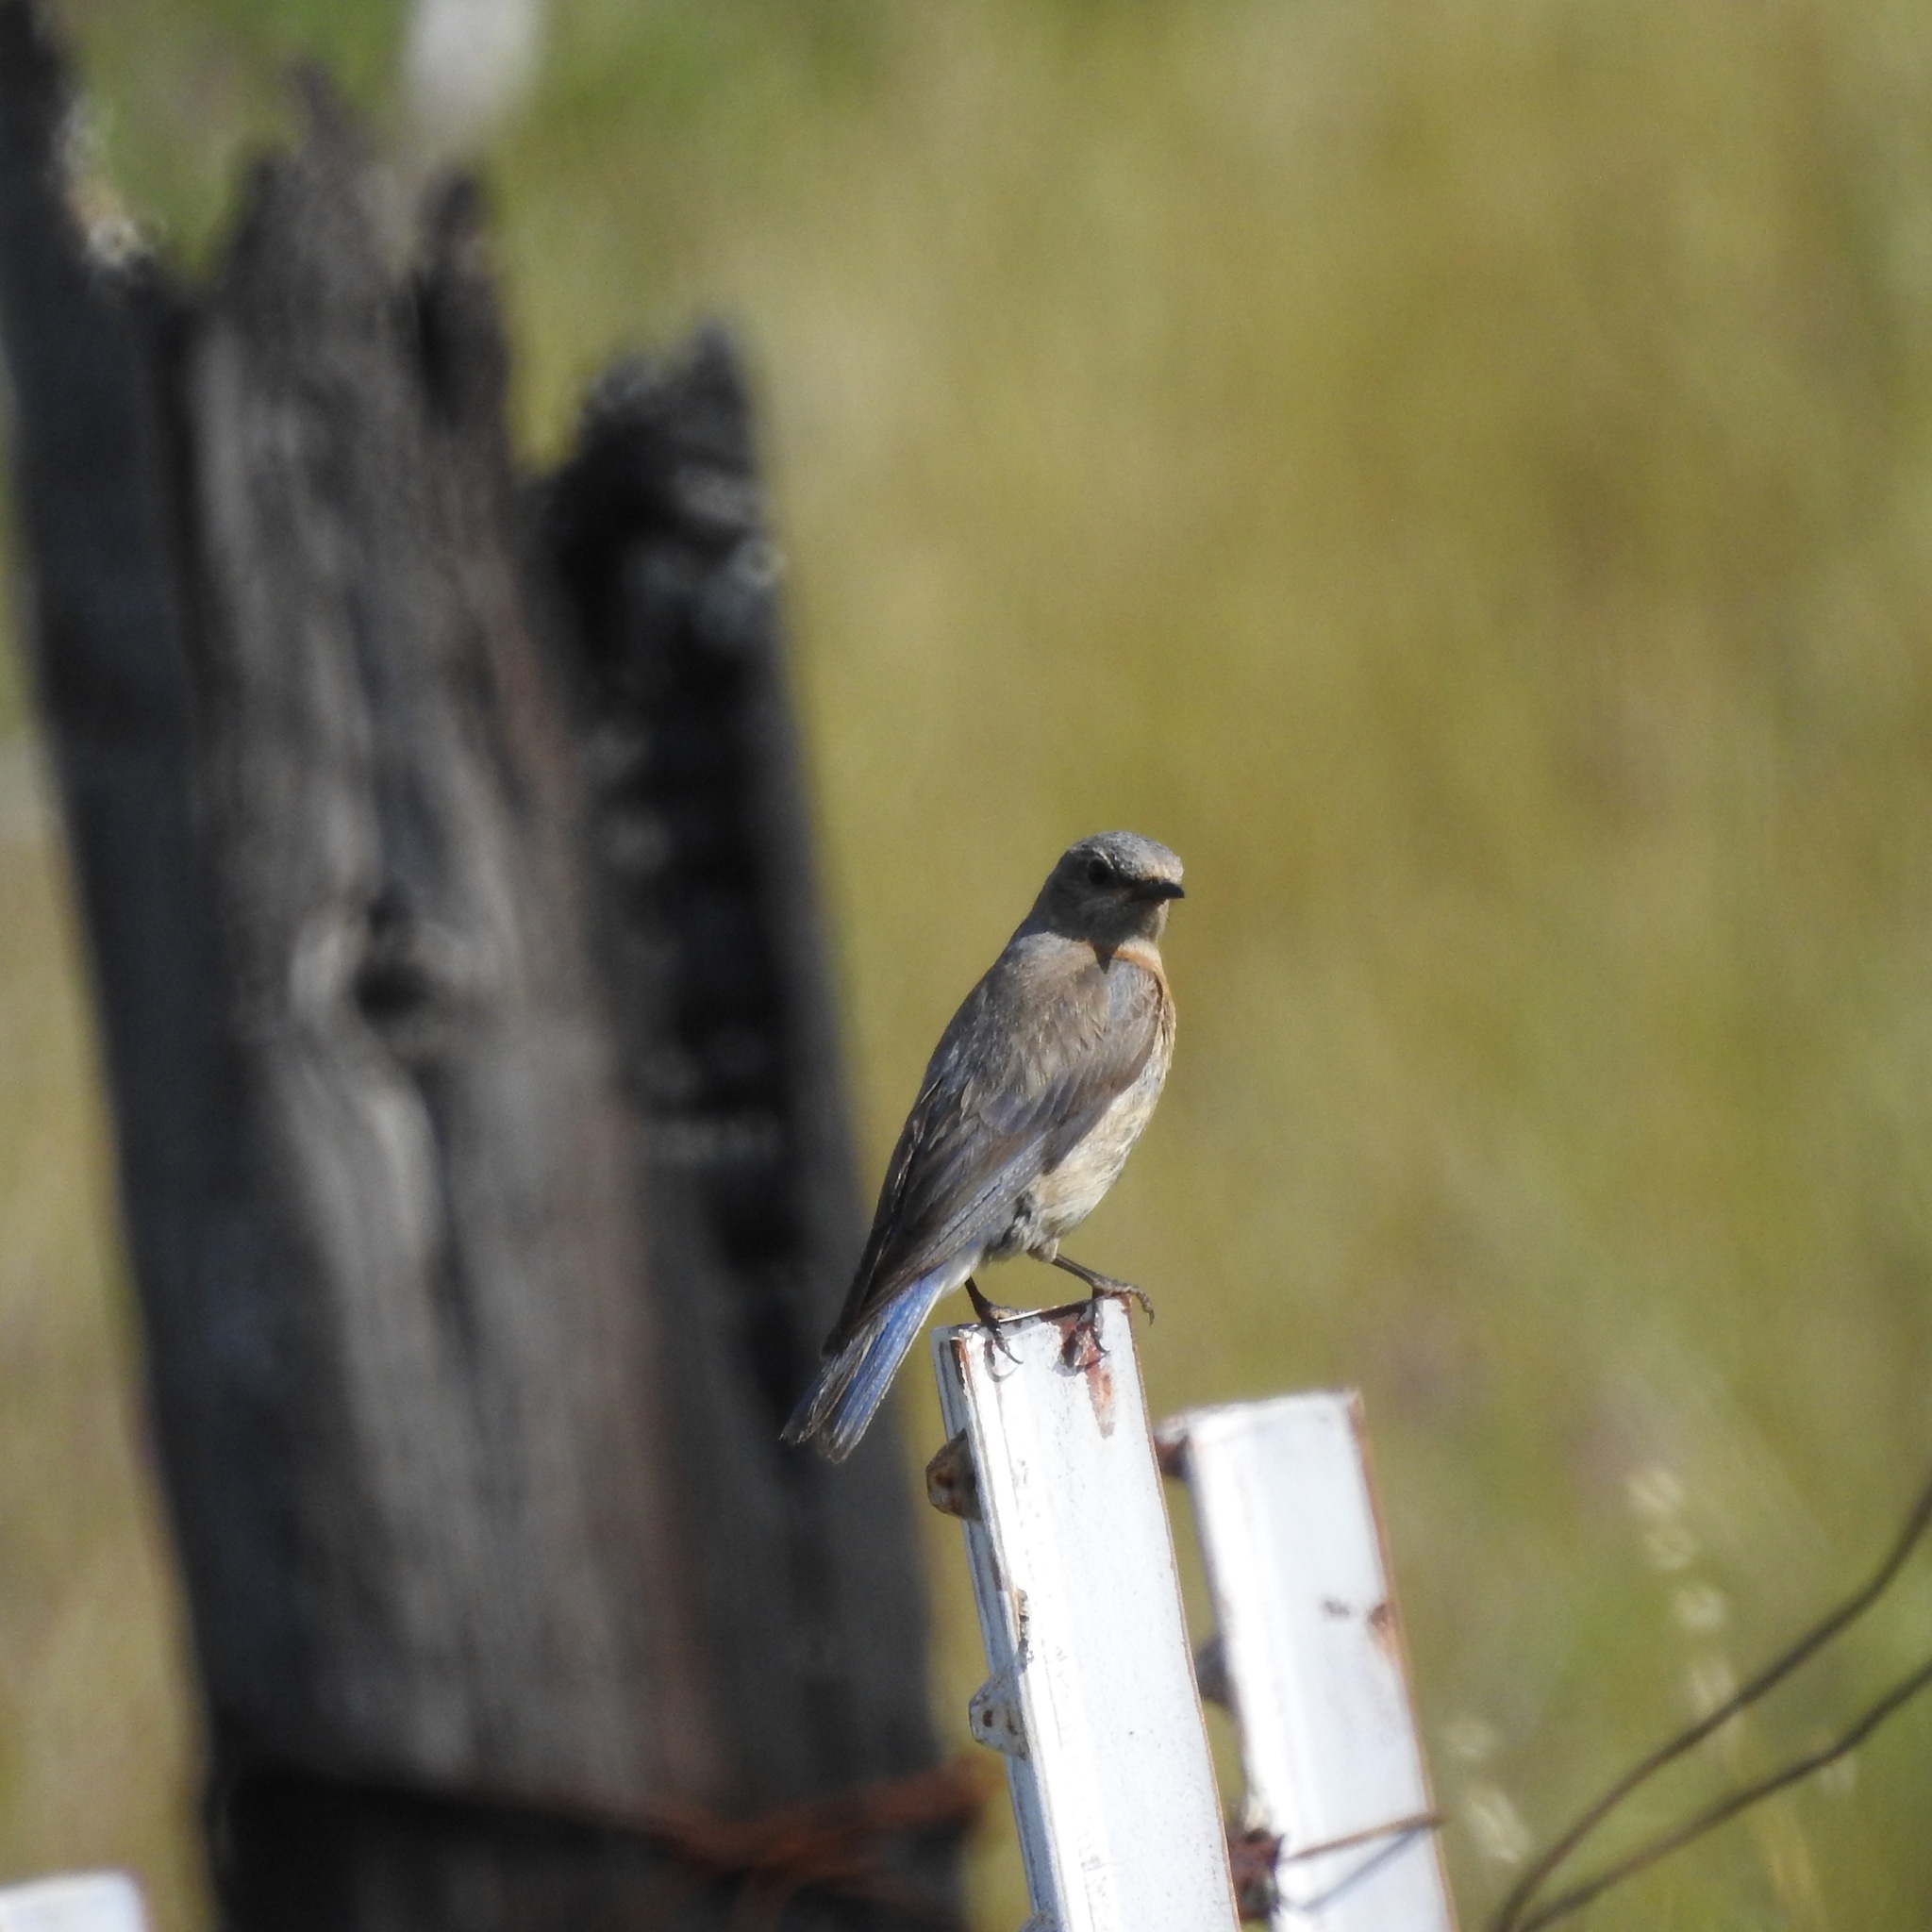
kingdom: Animalia
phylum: Chordata
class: Aves
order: Passeriformes
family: Turdidae
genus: Sialia
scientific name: Sialia mexicana
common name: Western bluebird
